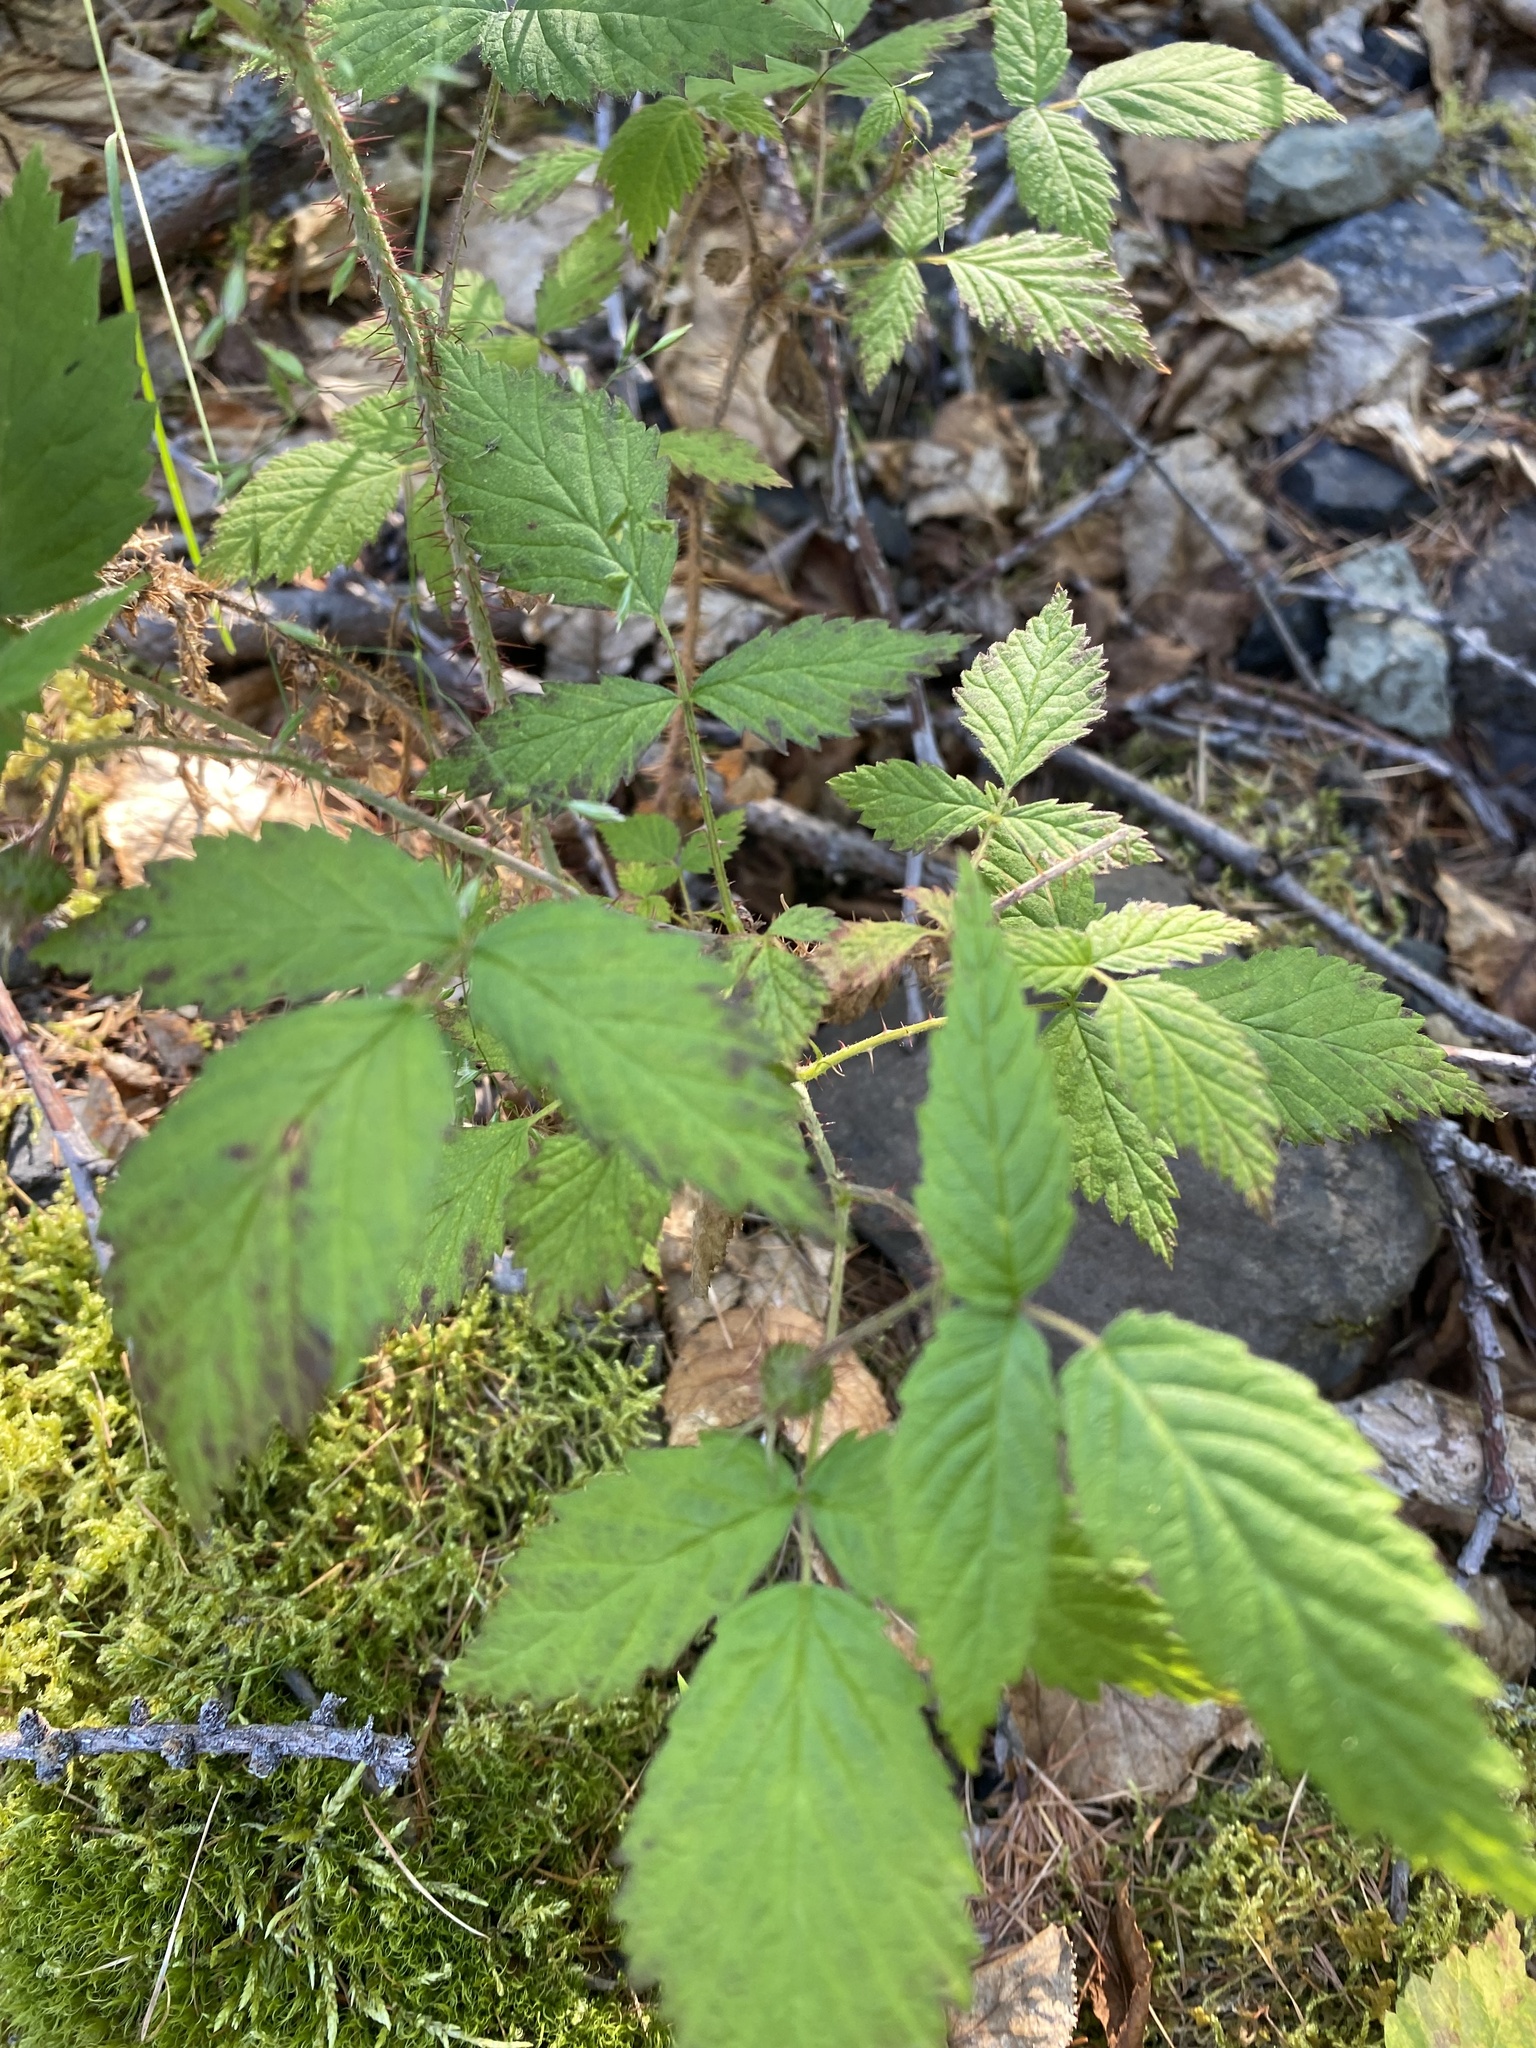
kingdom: Plantae
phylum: Tracheophyta
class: Magnoliopsida
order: Rosales
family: Rosaceae
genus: Rubus
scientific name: Rubus sachalinensis
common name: Red raspberry
